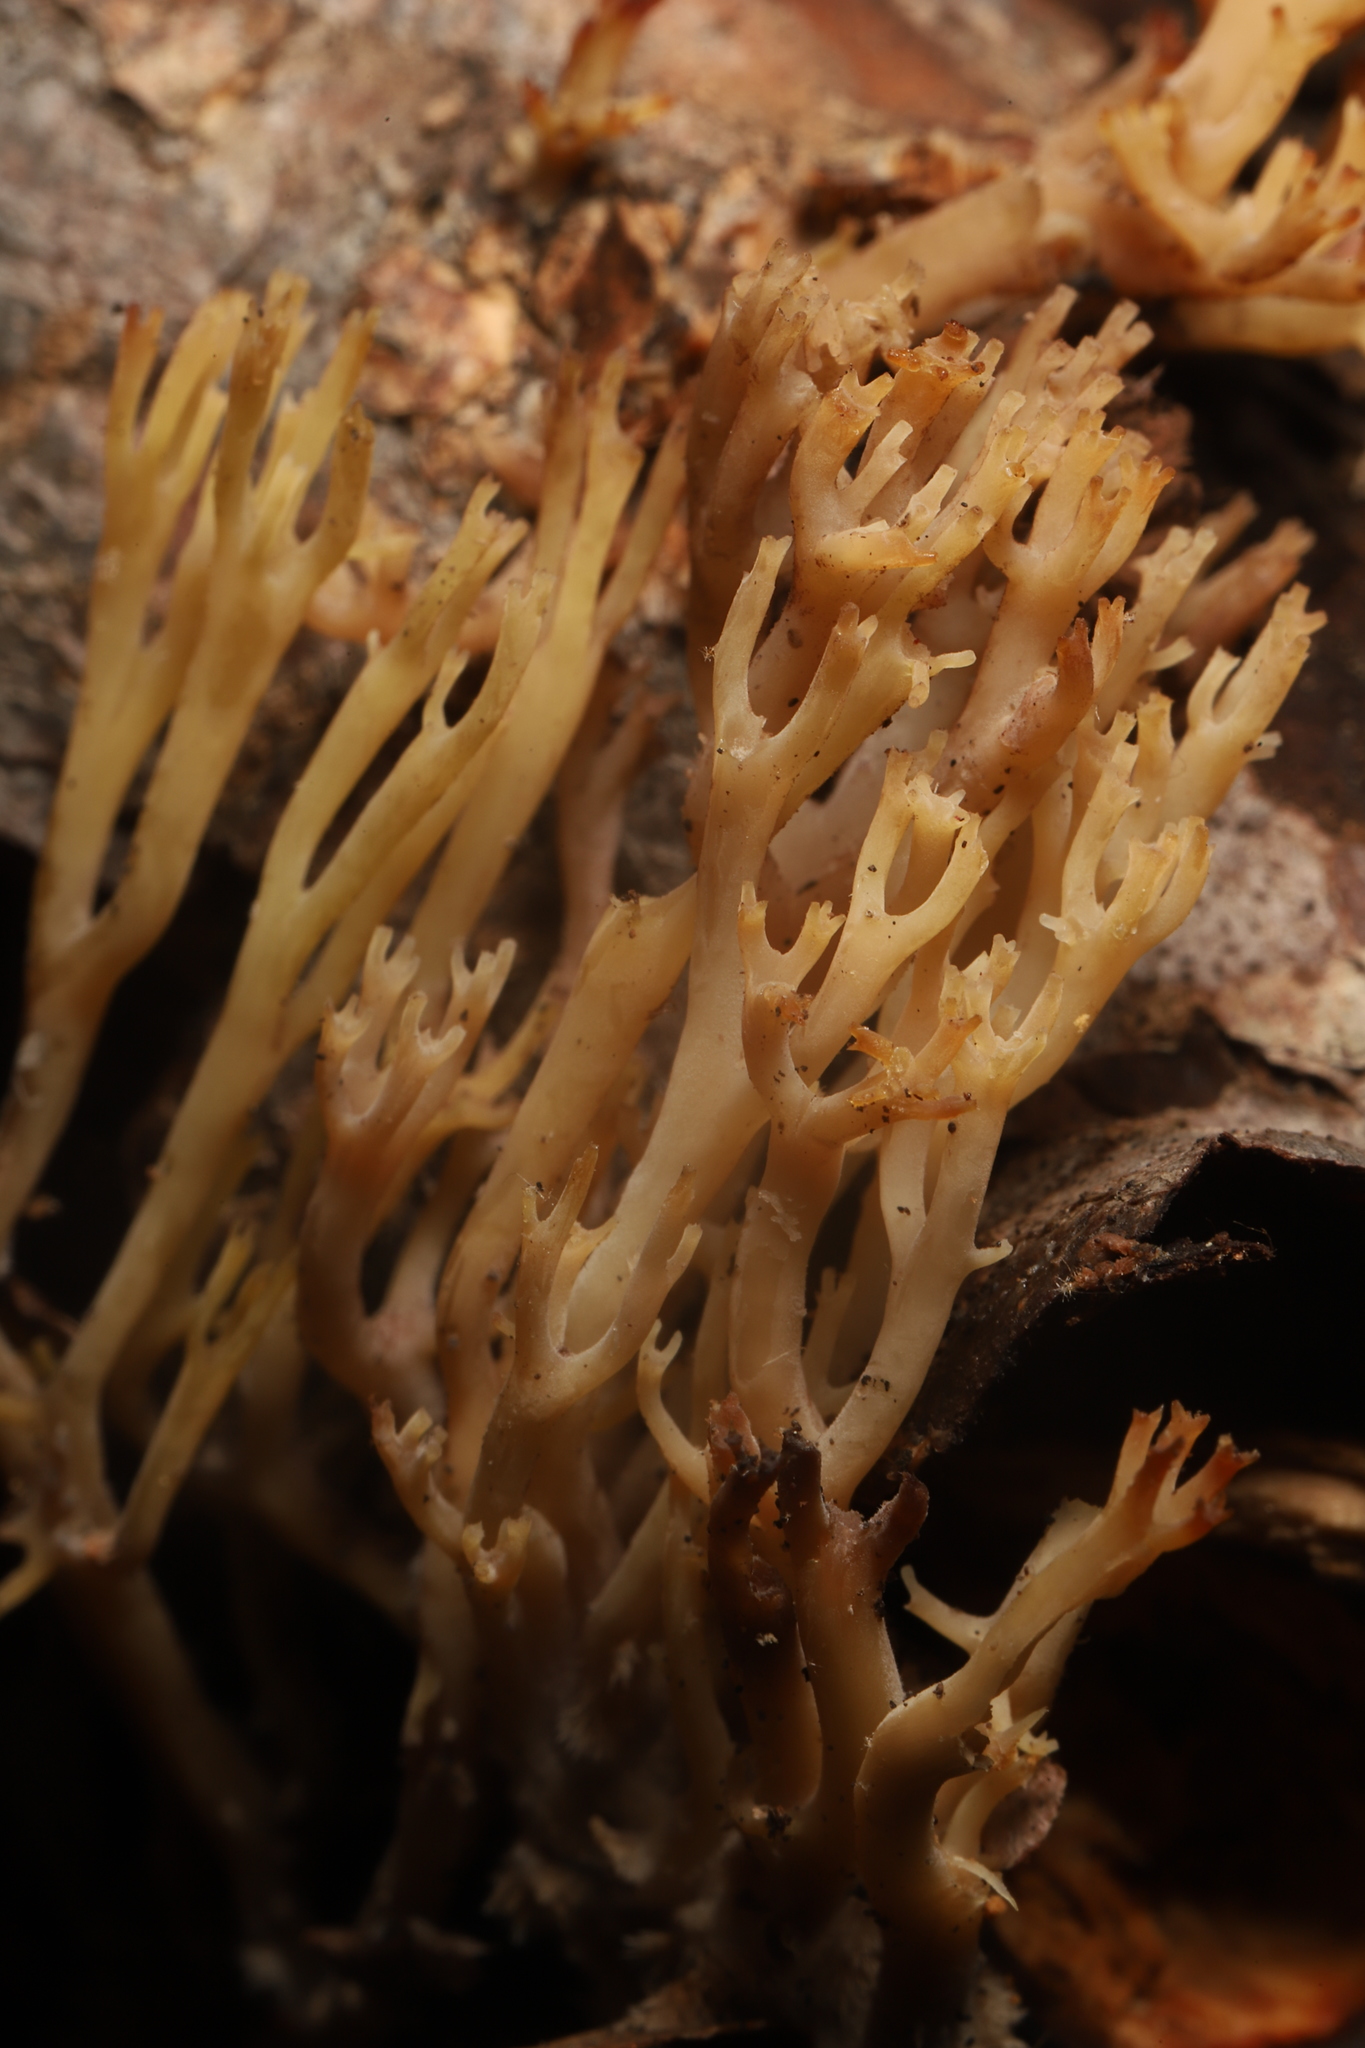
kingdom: Fungi
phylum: Basidiomycota
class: Agaricomycetes
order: Russulales
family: Auriscalpiaceae
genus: Artomyces
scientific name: Artomyces pyxidatus
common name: Crown-tipped coral fungus
